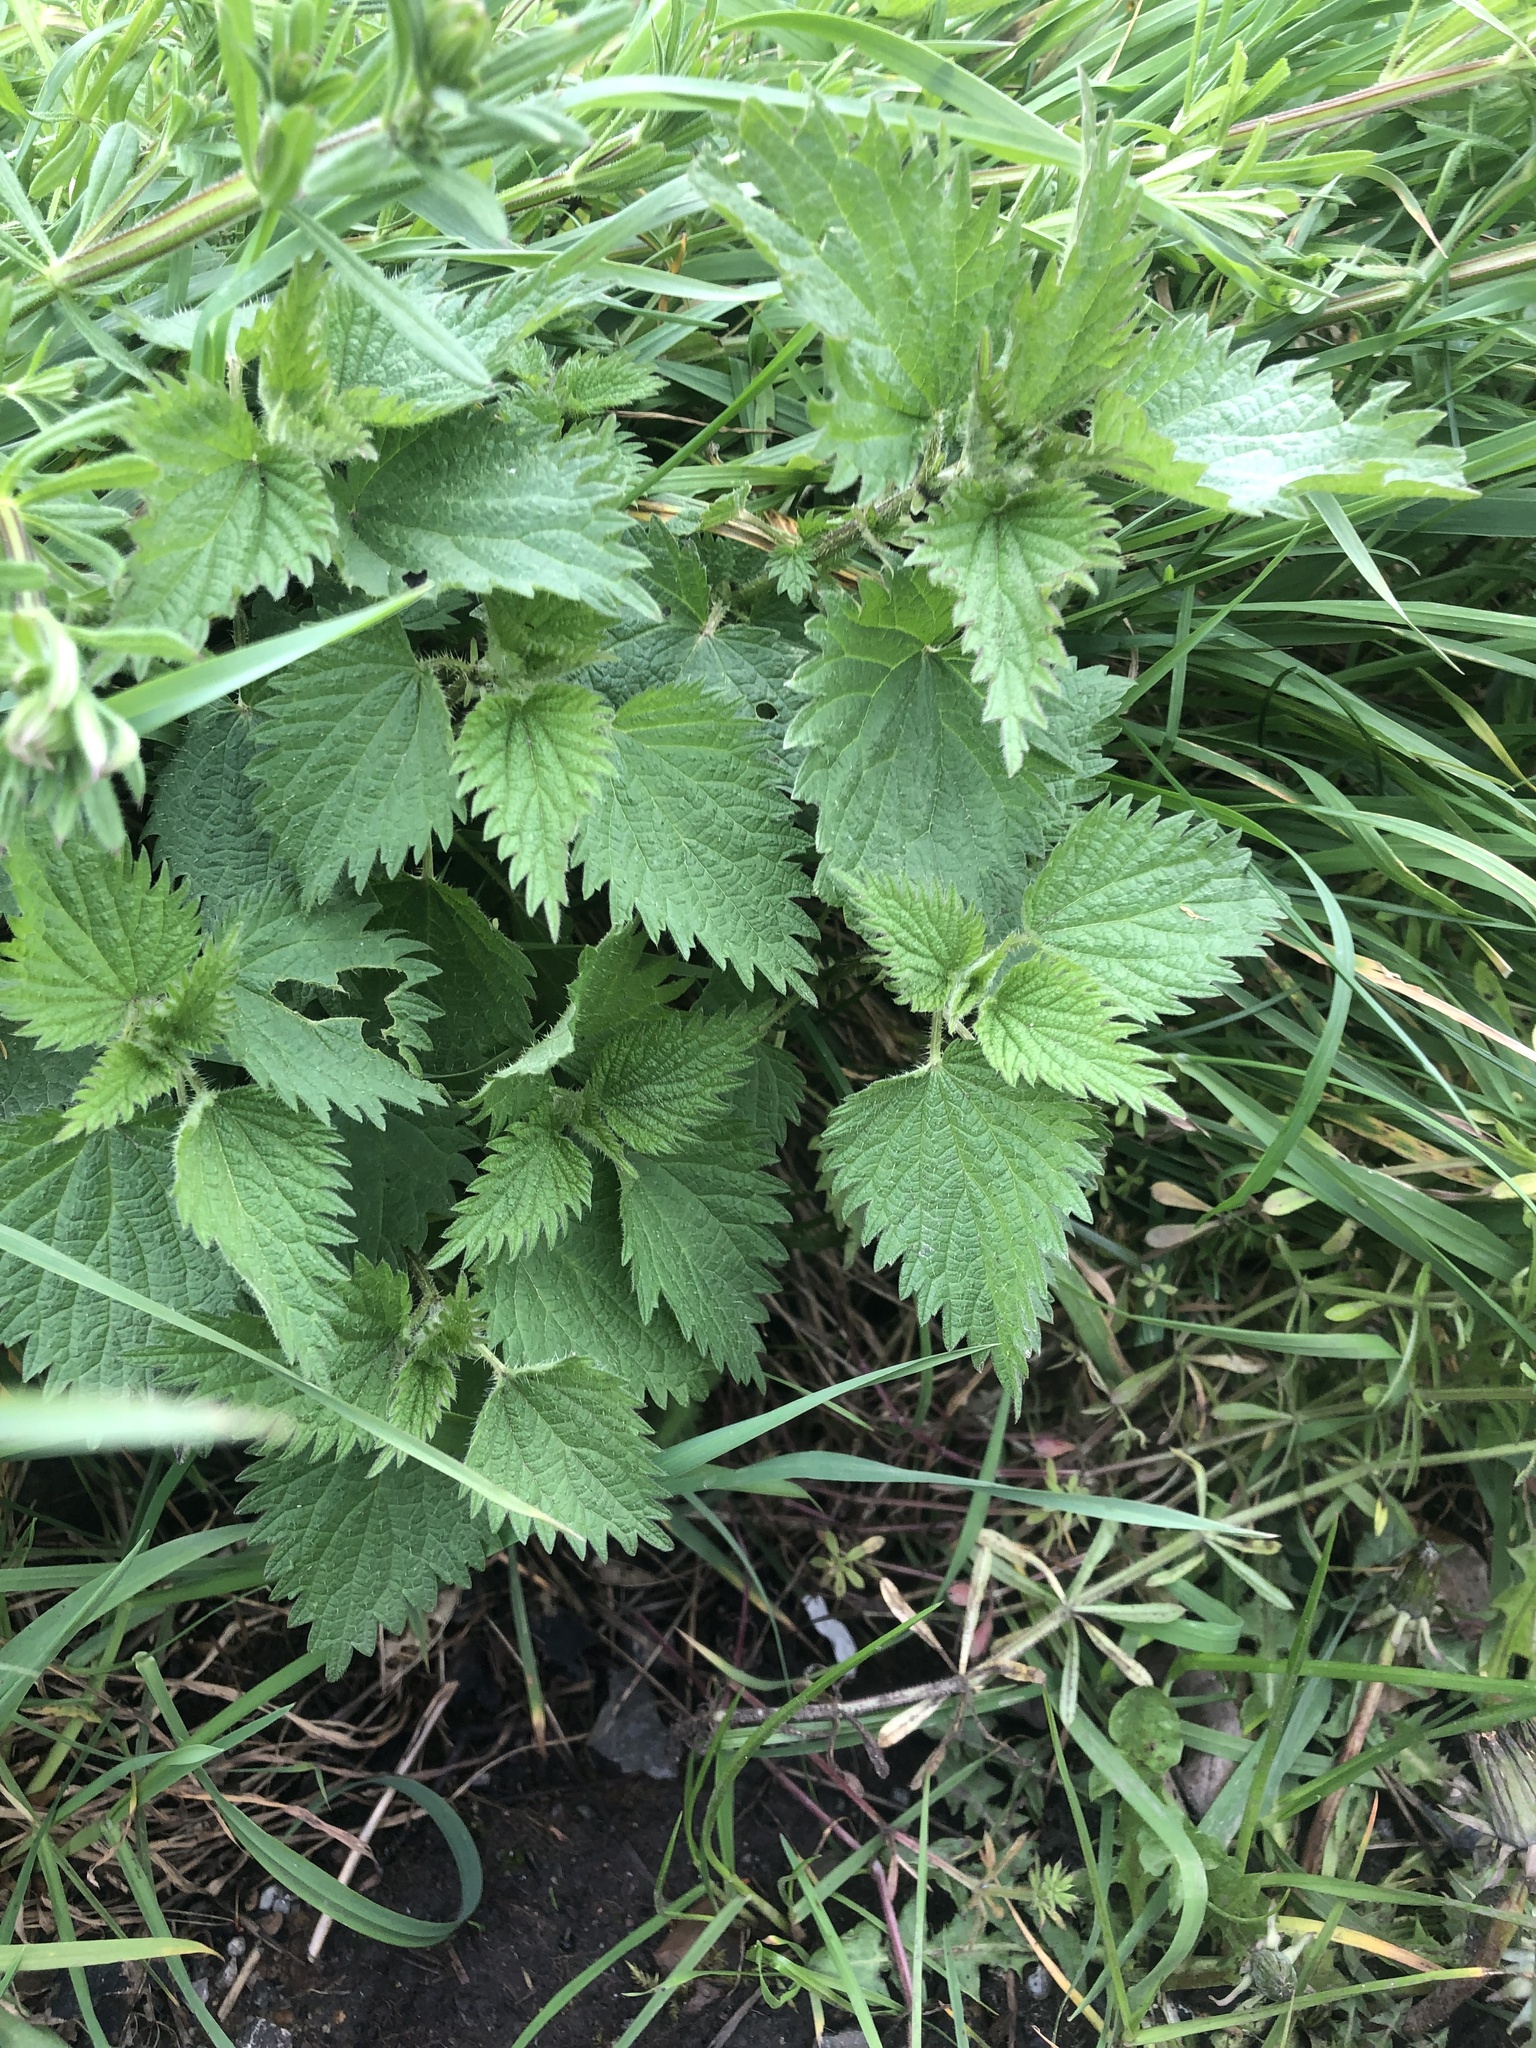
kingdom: Plantae
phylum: Tracheophyta
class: Magnoliopsida
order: Rosales
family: Urticaceae
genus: Urtica
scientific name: Urtica dioica
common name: Common nettle
